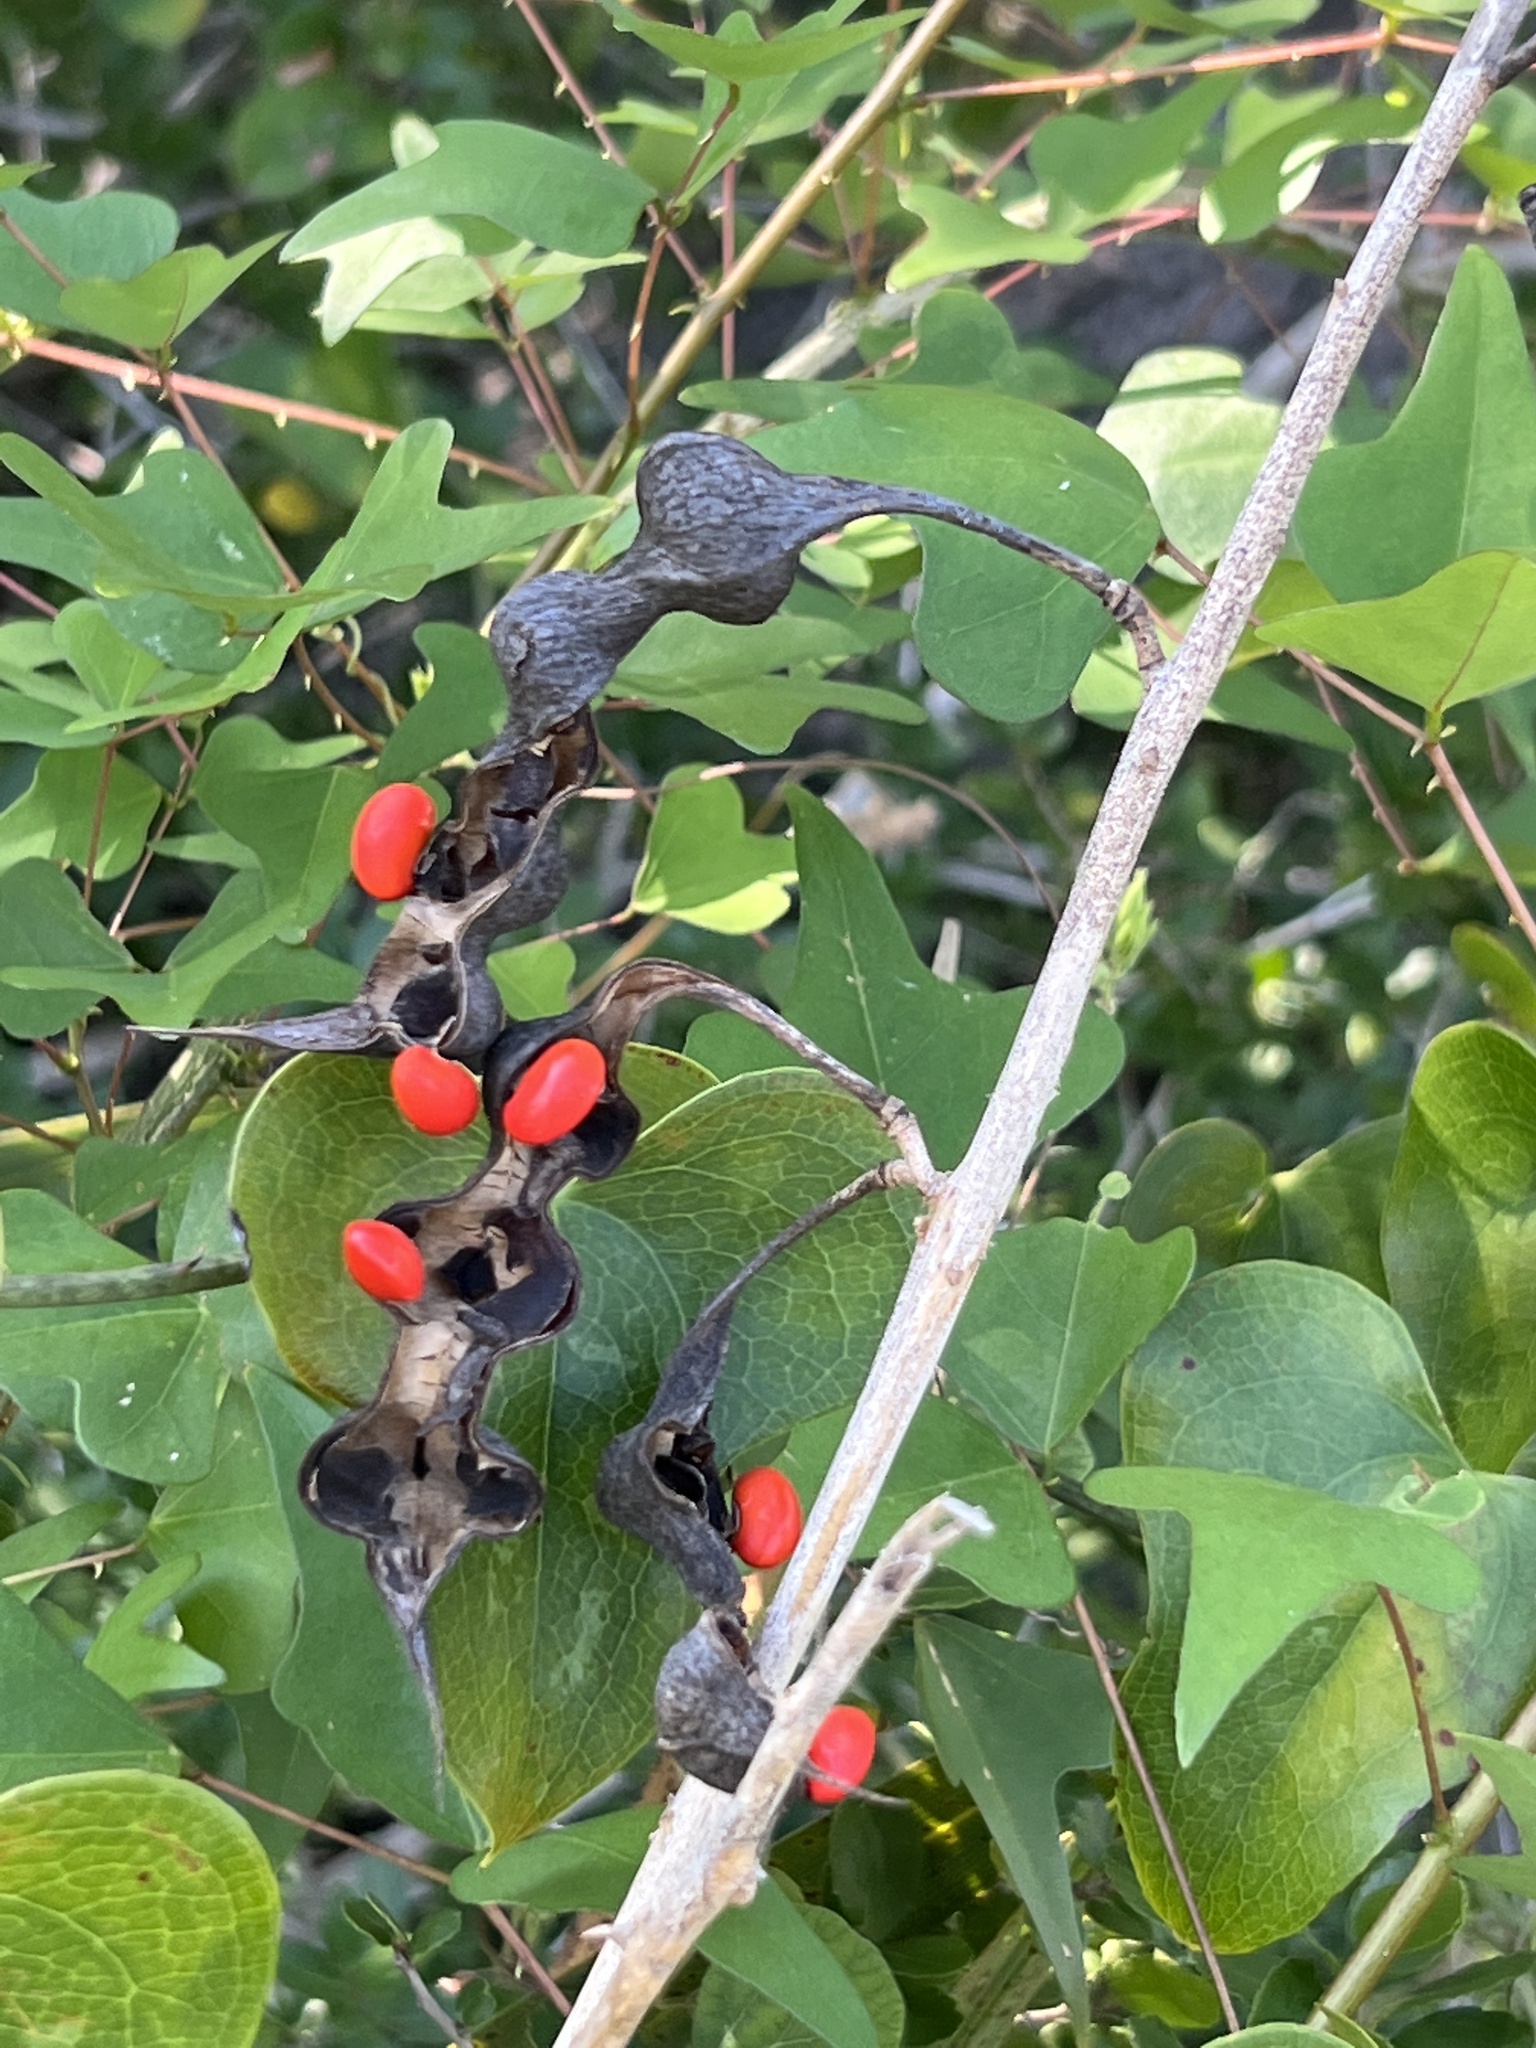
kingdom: Plantae
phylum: Tracheophyta
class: Magnoliopsida
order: Fabales
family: Fabaceae
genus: Erythrina
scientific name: Erythrina herbacea
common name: Coral-bean
